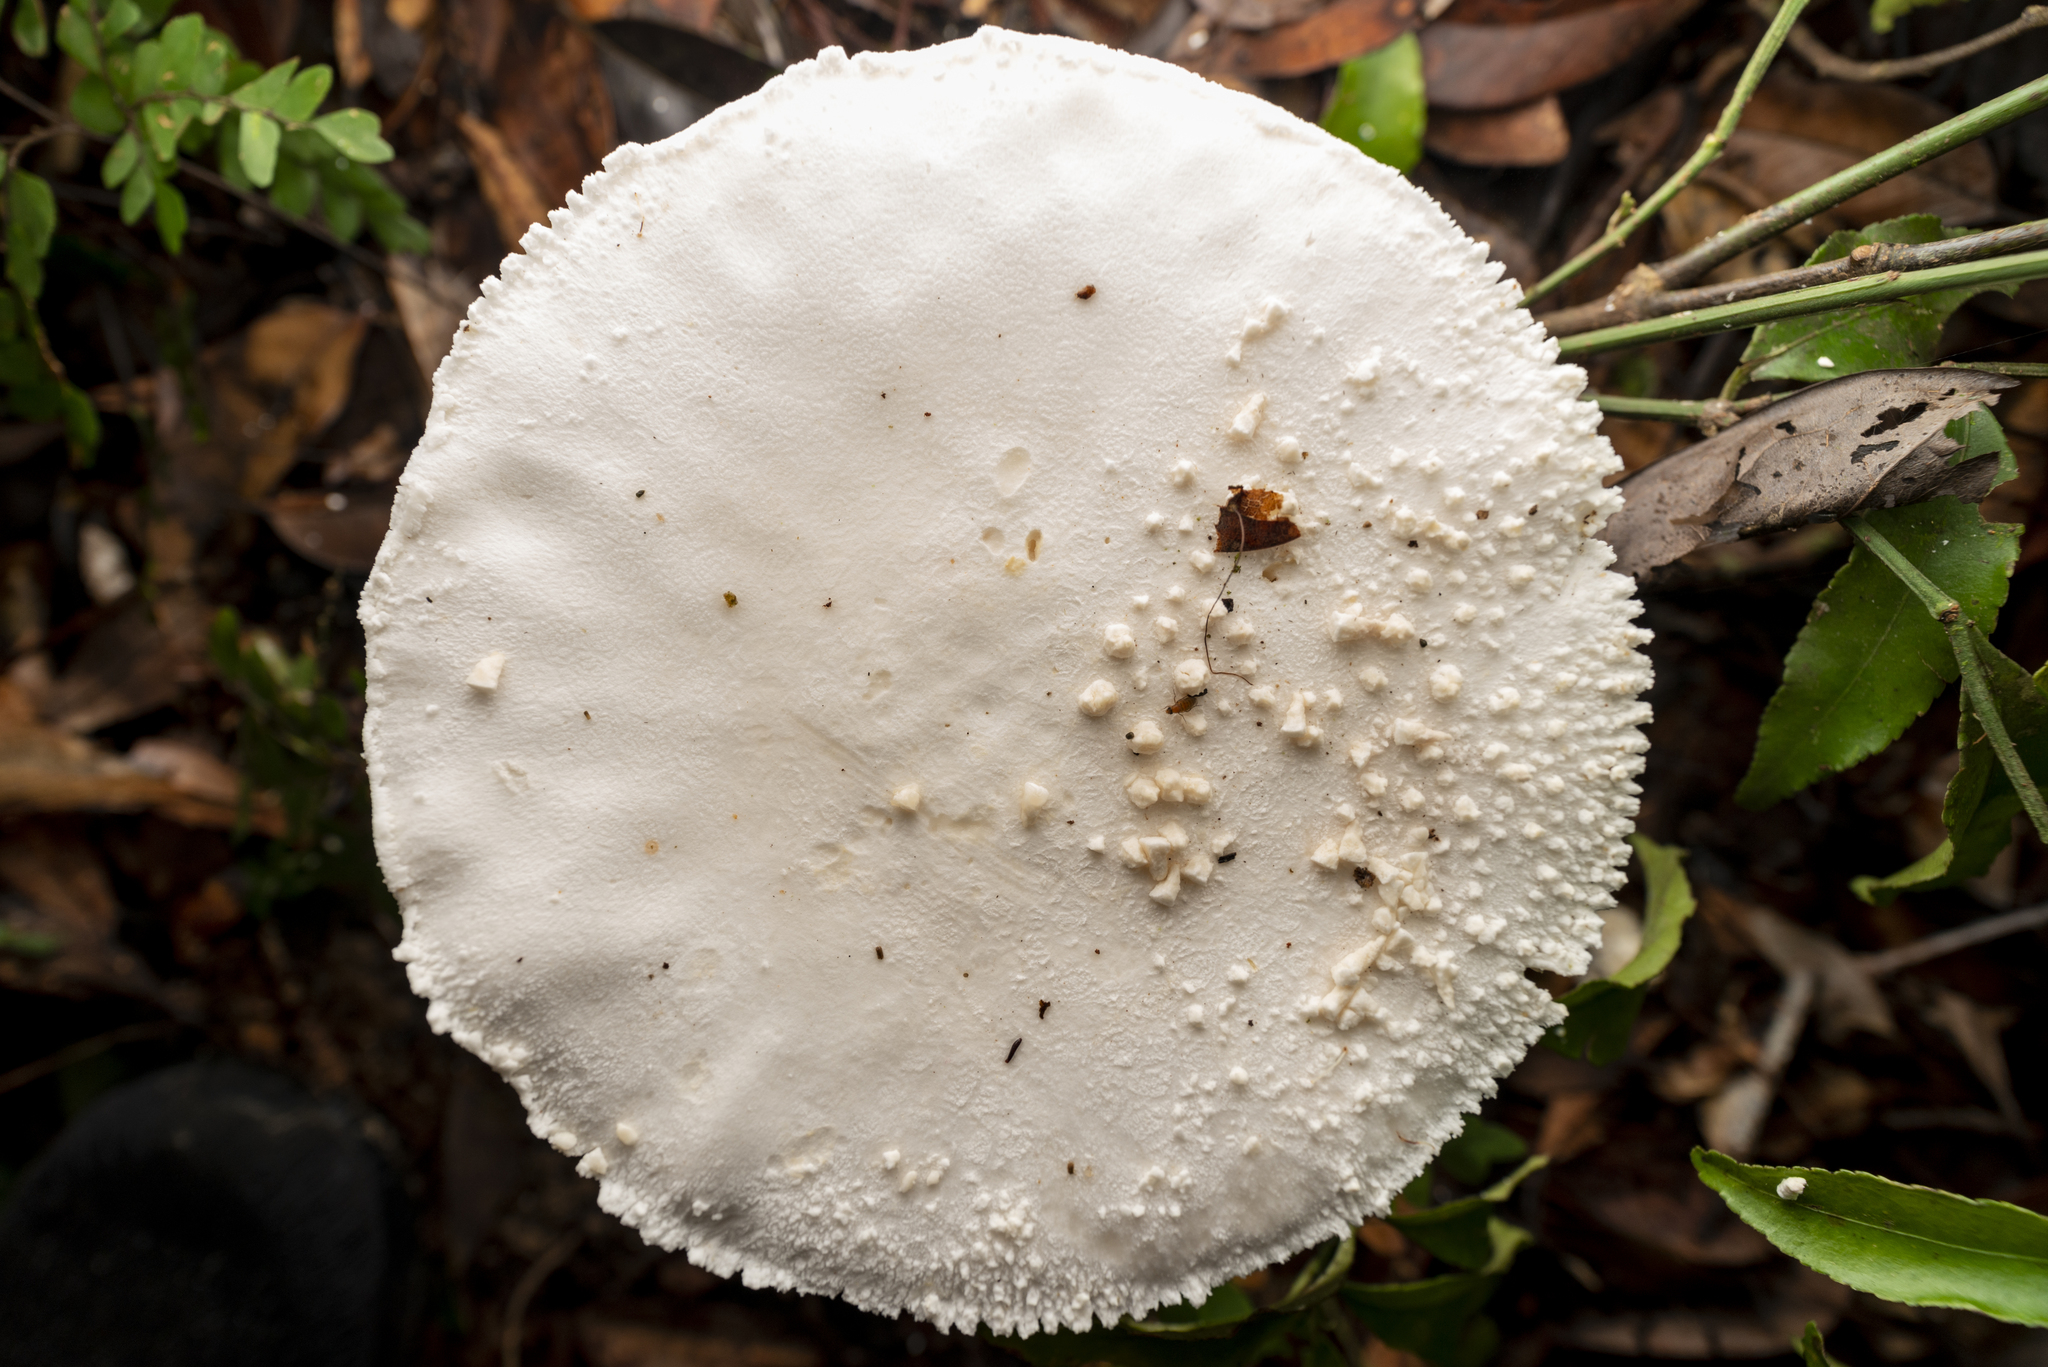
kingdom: Fungi
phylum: Basidiomycota
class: Agaricomycetes
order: Agaricales
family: Amanitaceae
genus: Amanita
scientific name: Amanita virgineoides
